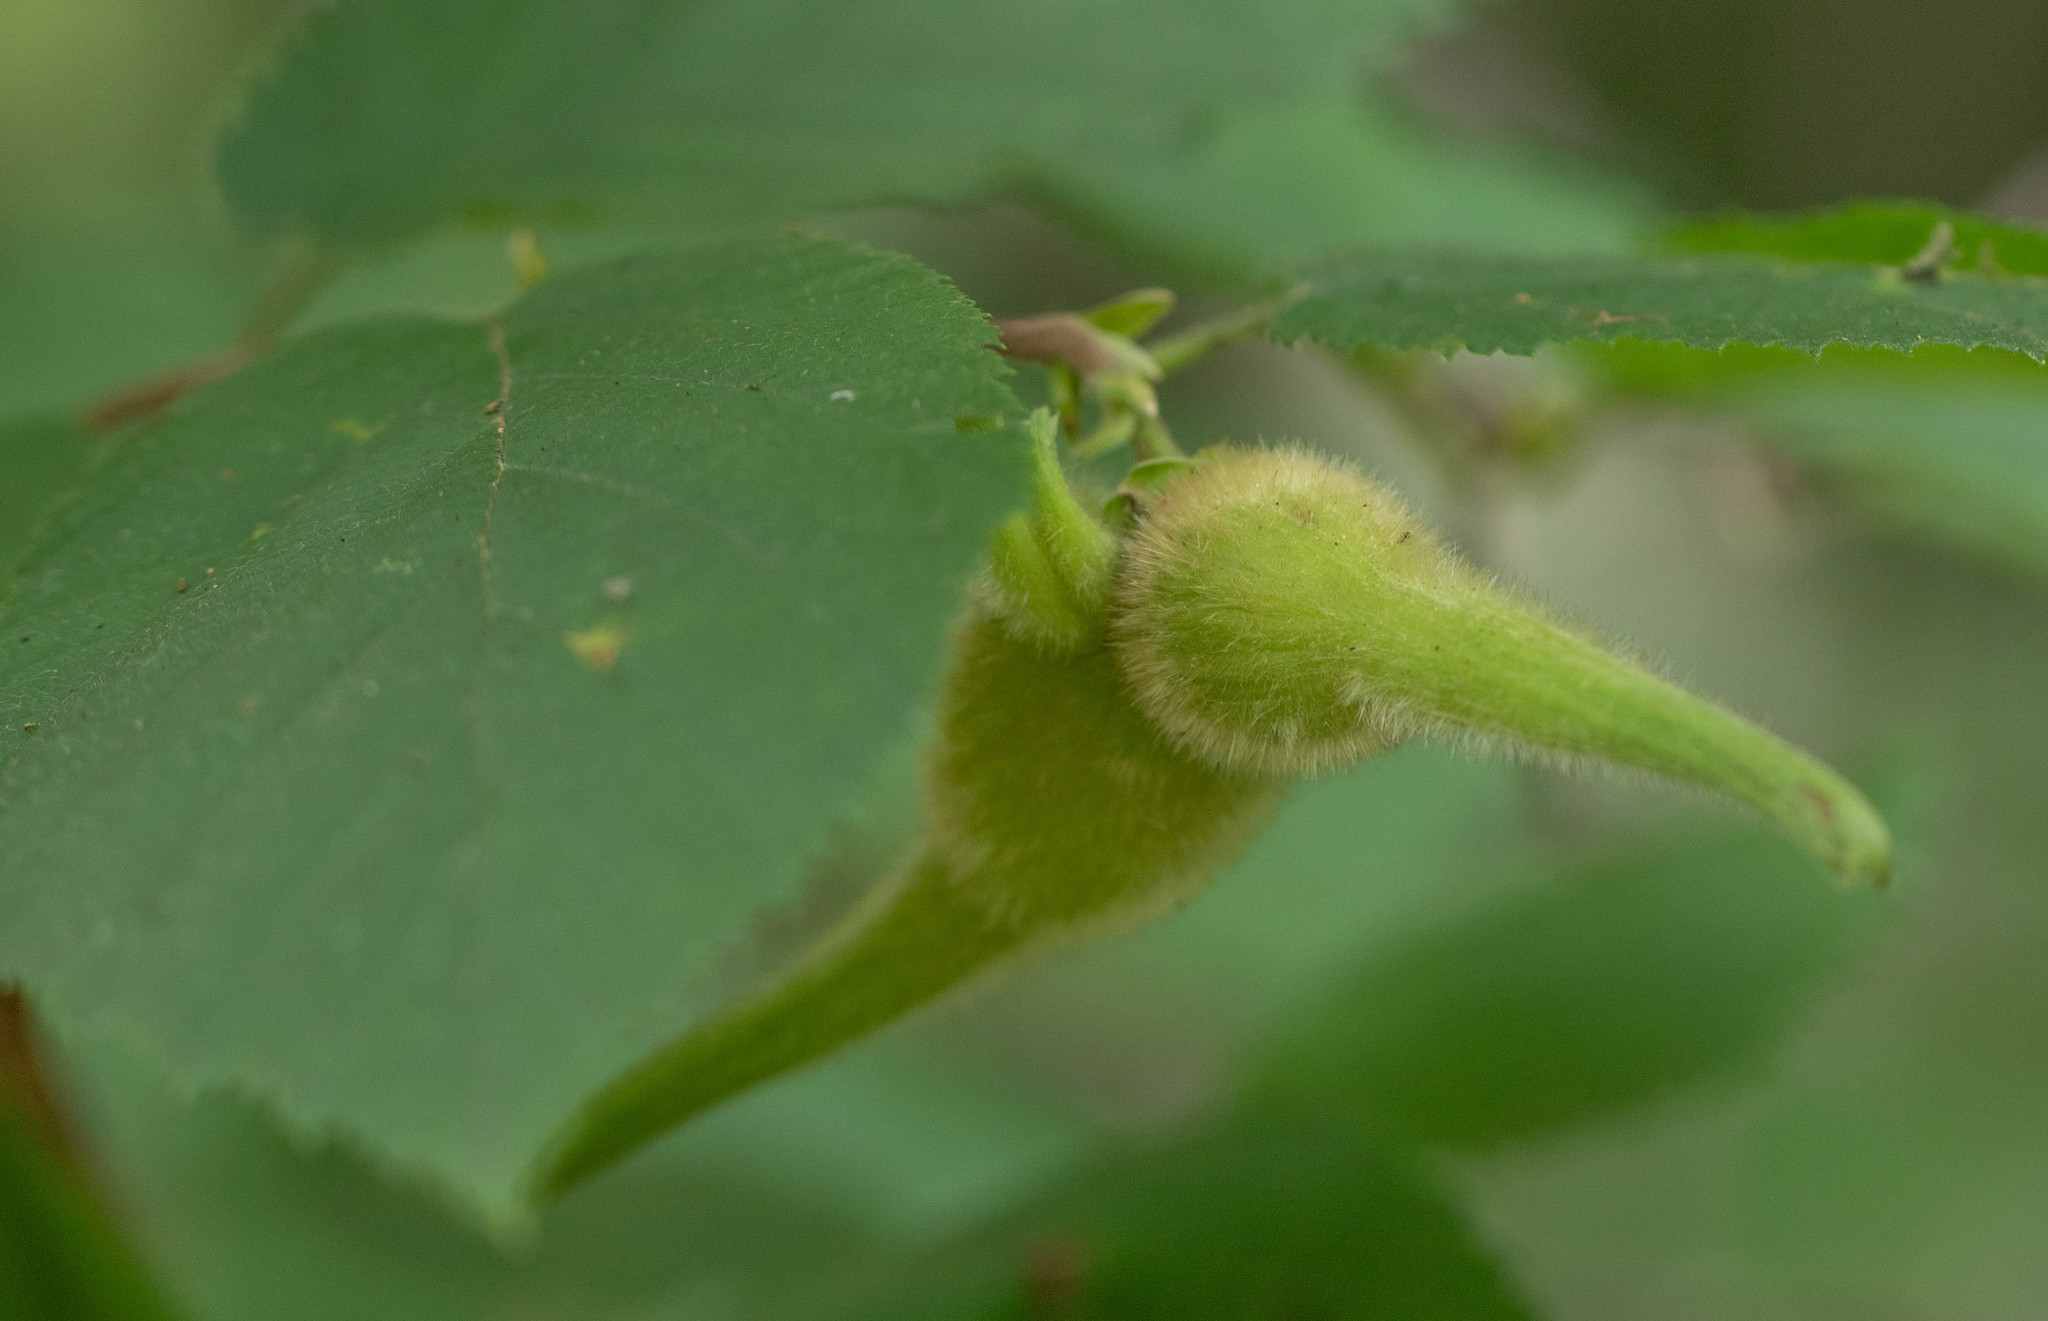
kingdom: Plantae
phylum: Tracheophyta
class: Magnoliopsida
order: Fagales
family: Betulaceae
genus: Corylus
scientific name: Corylus cornuta
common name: Beaked hazel
